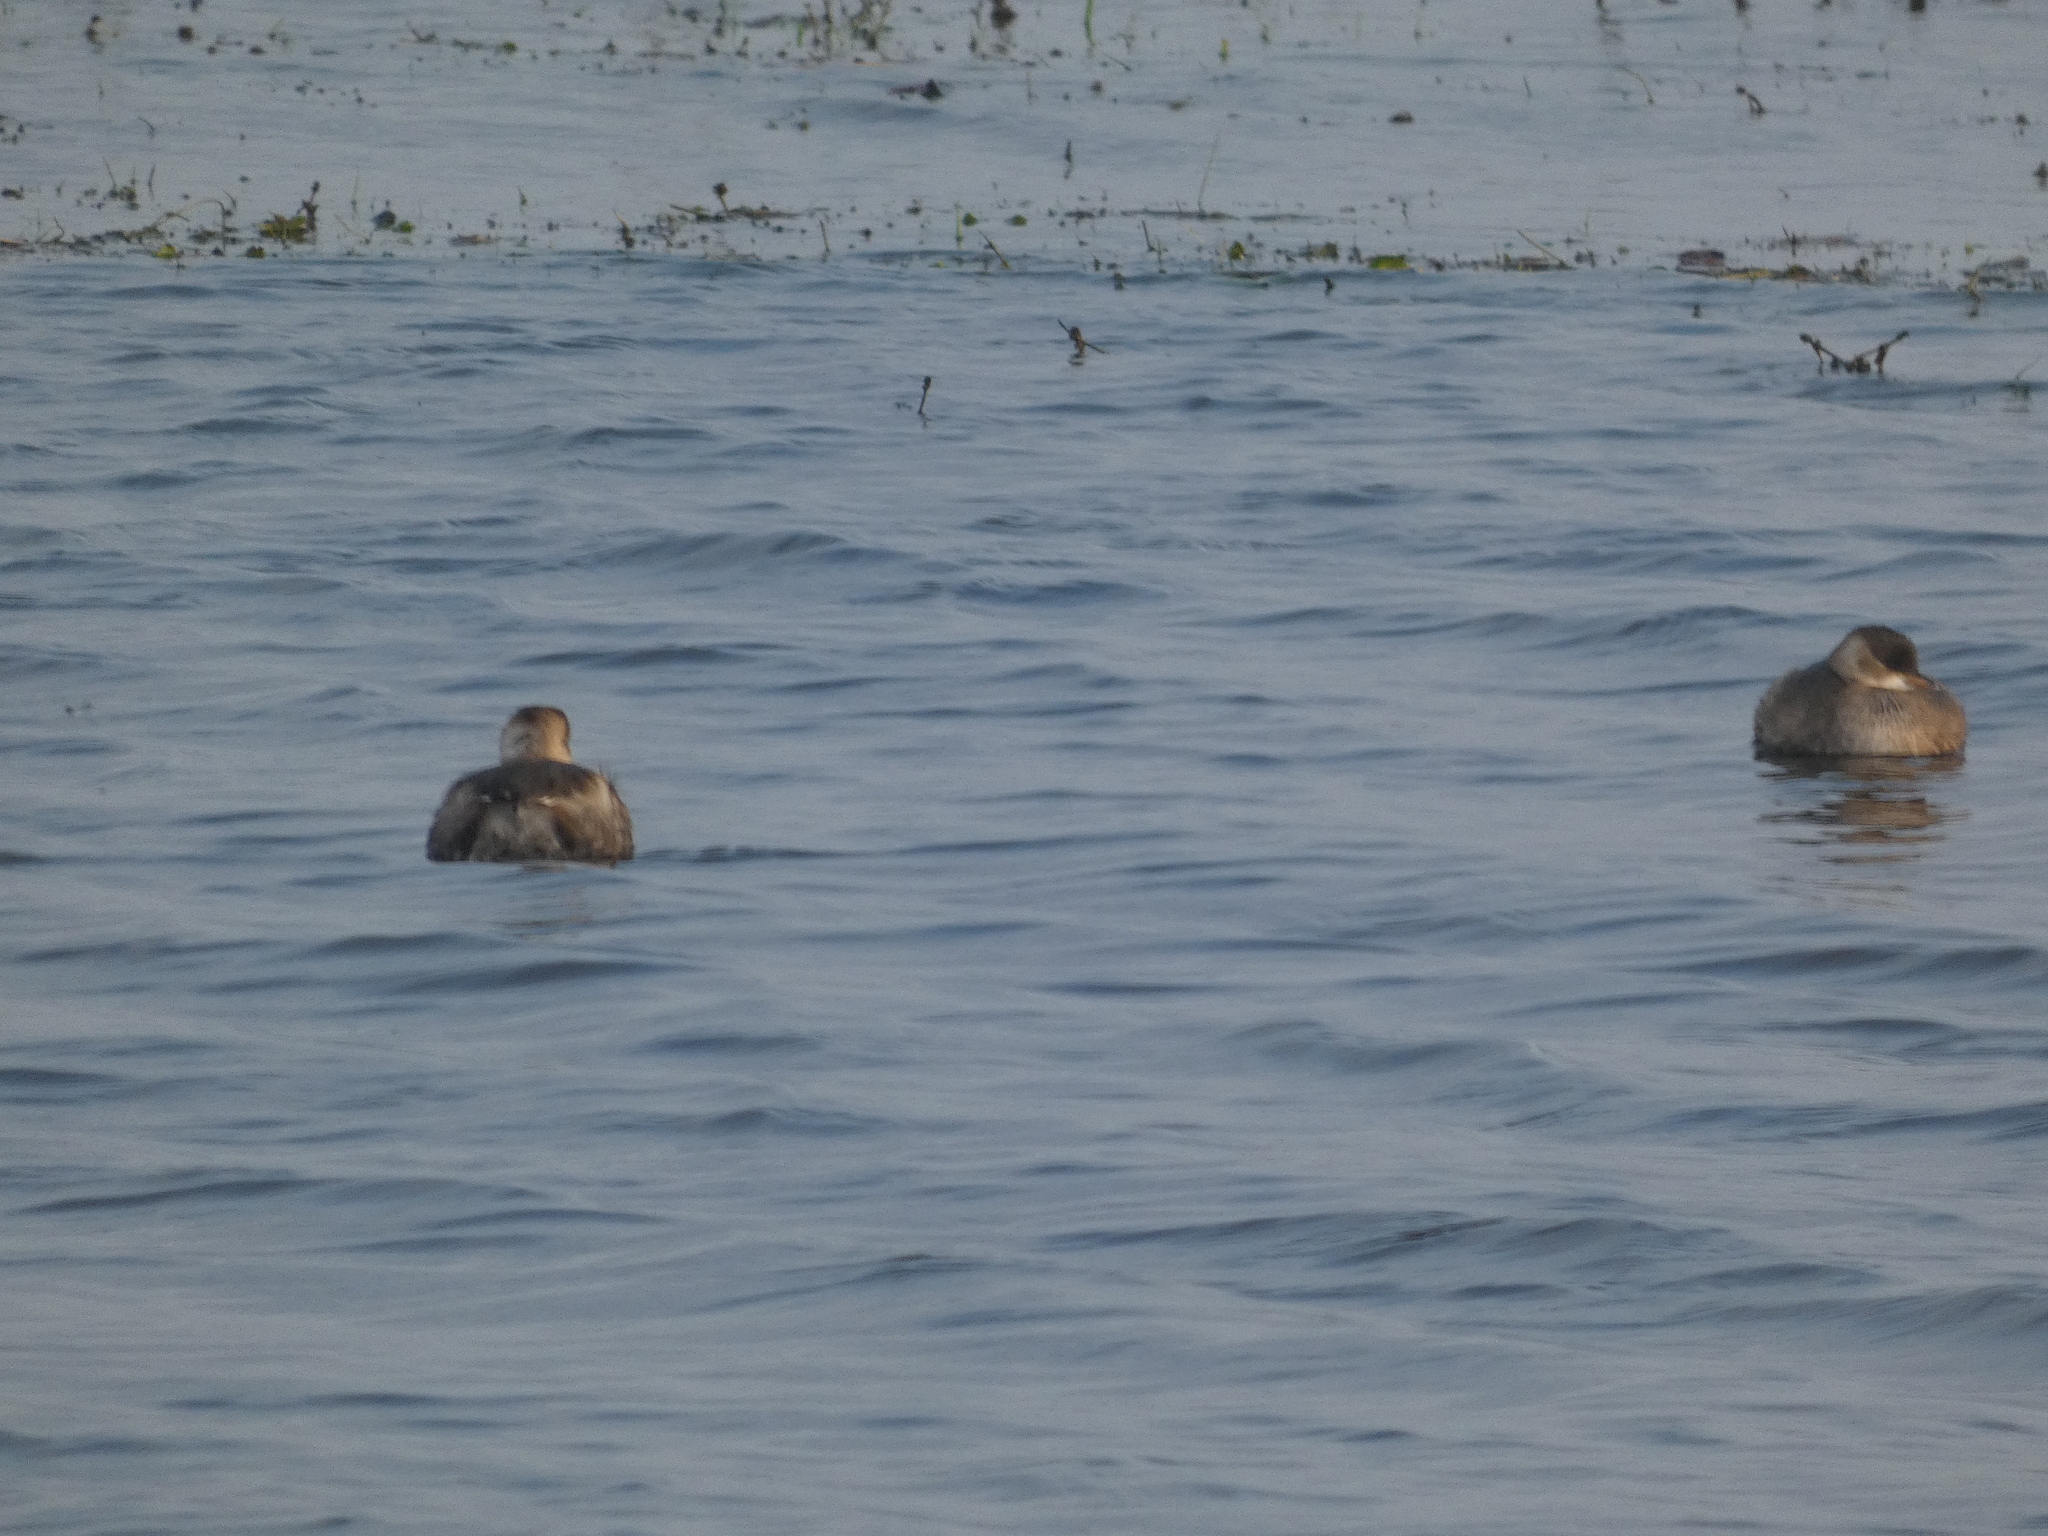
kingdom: Animalia
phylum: Chordata
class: Aves
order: Podicipediformes
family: Podicipedidae
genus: Tachybaptus
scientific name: Tachybaptus ruficollis
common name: Little grebe
